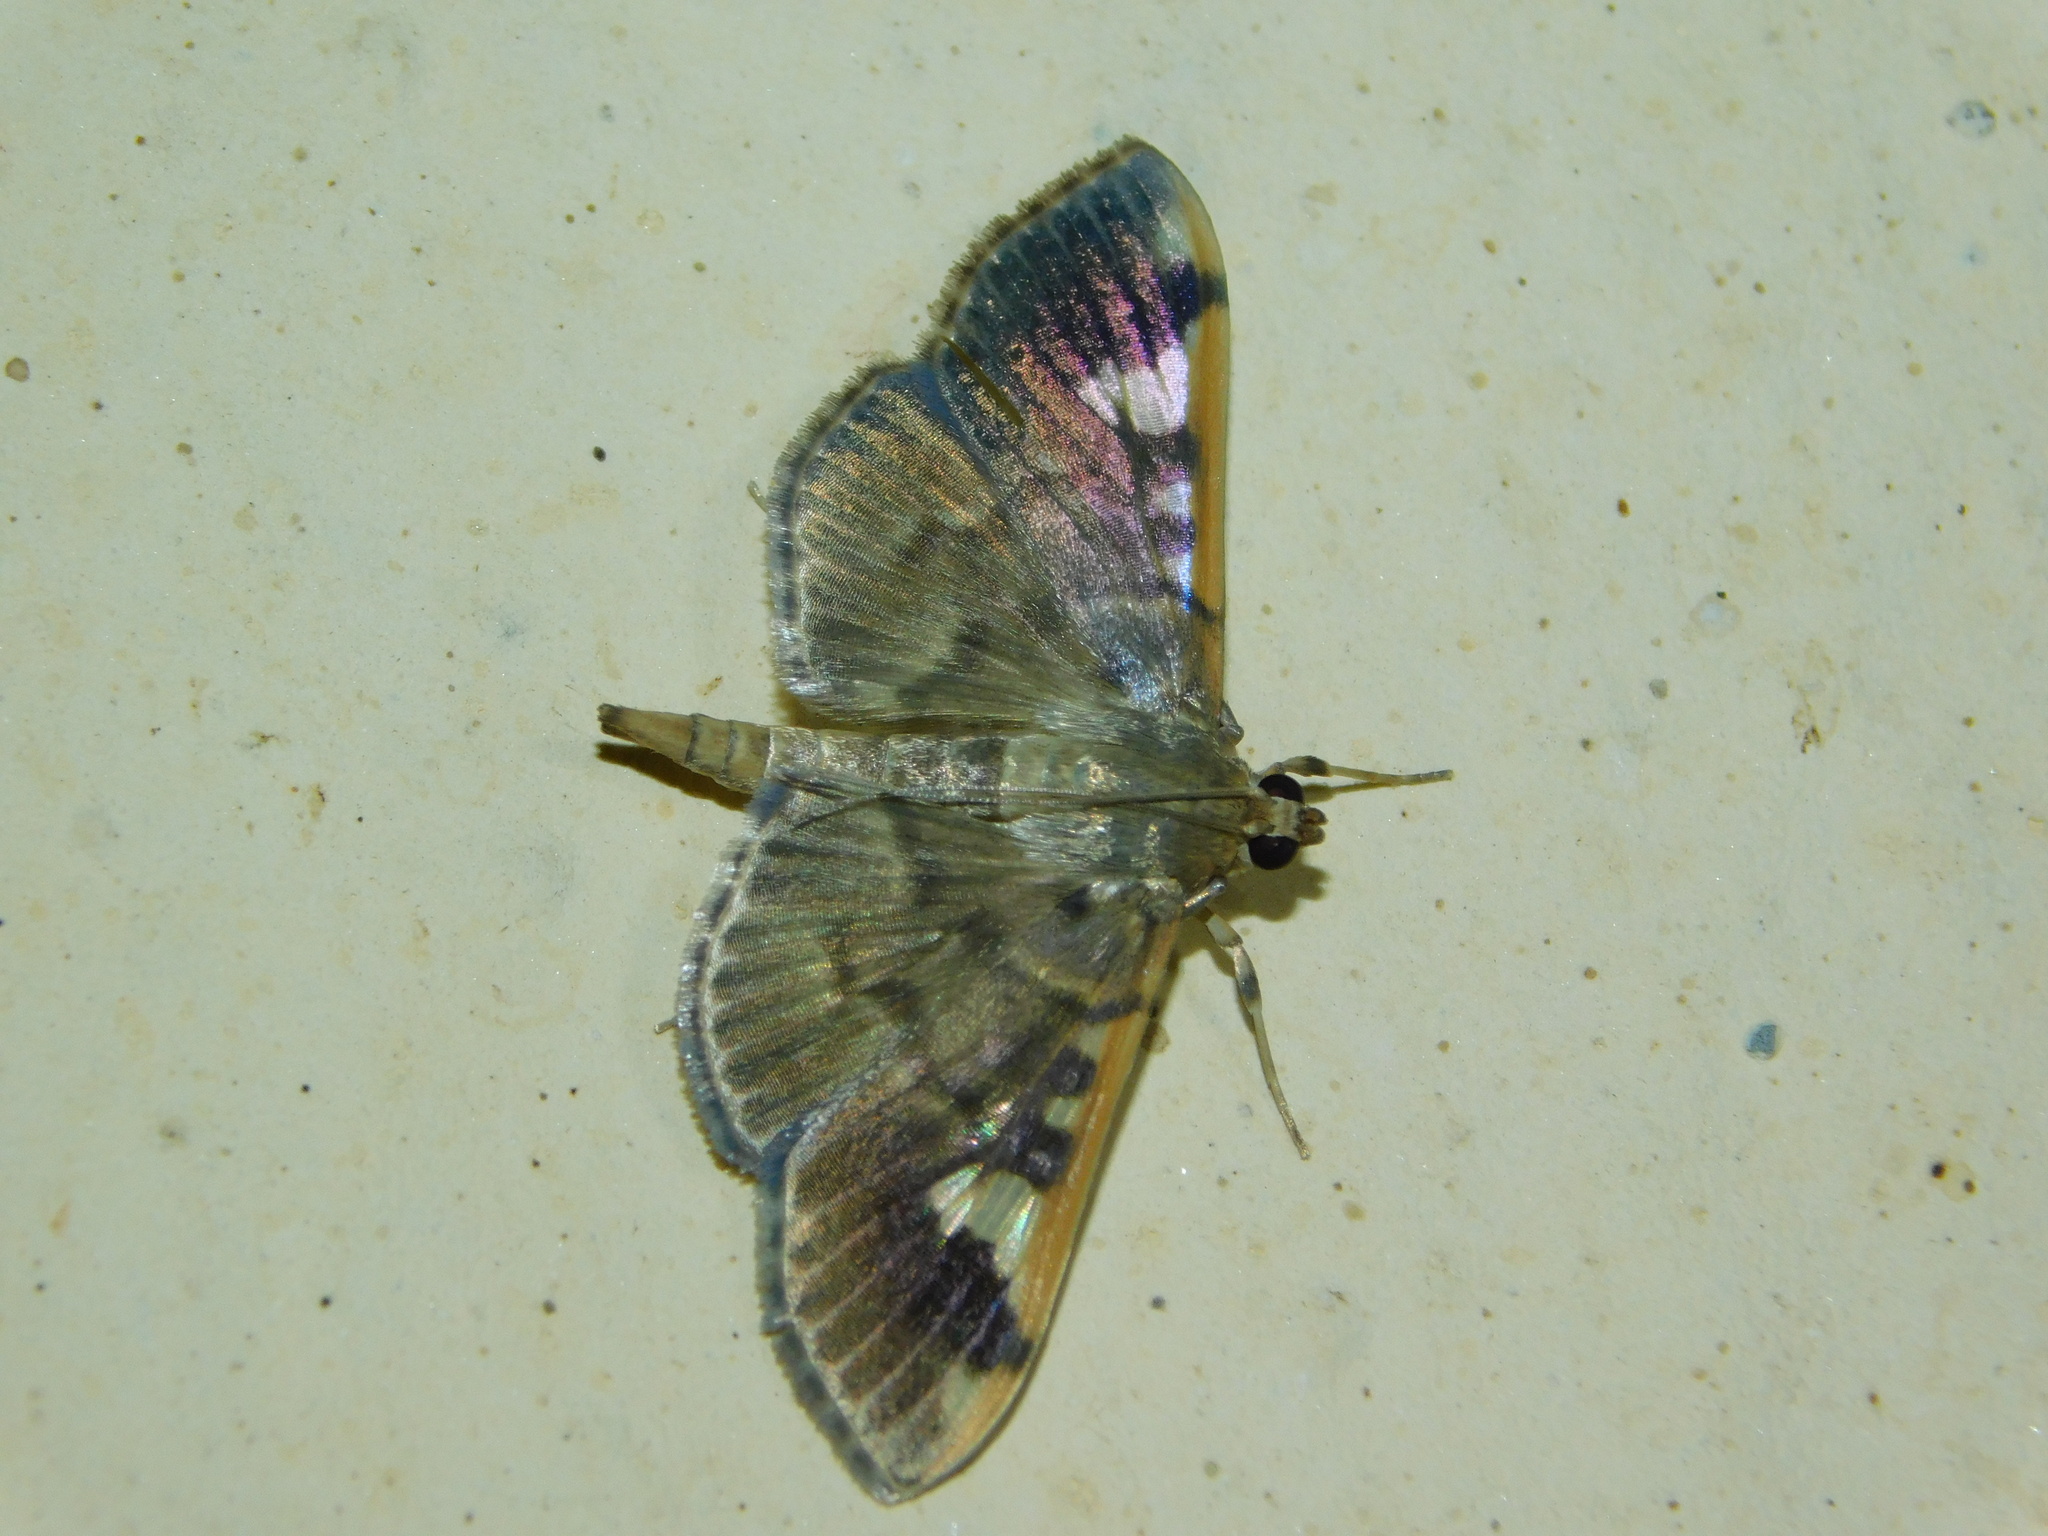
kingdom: Animalia
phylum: Arthropoda
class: Insecta
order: Lepidoptera
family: Crambidae
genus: Prophantis
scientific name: Prophantis longicornalis
